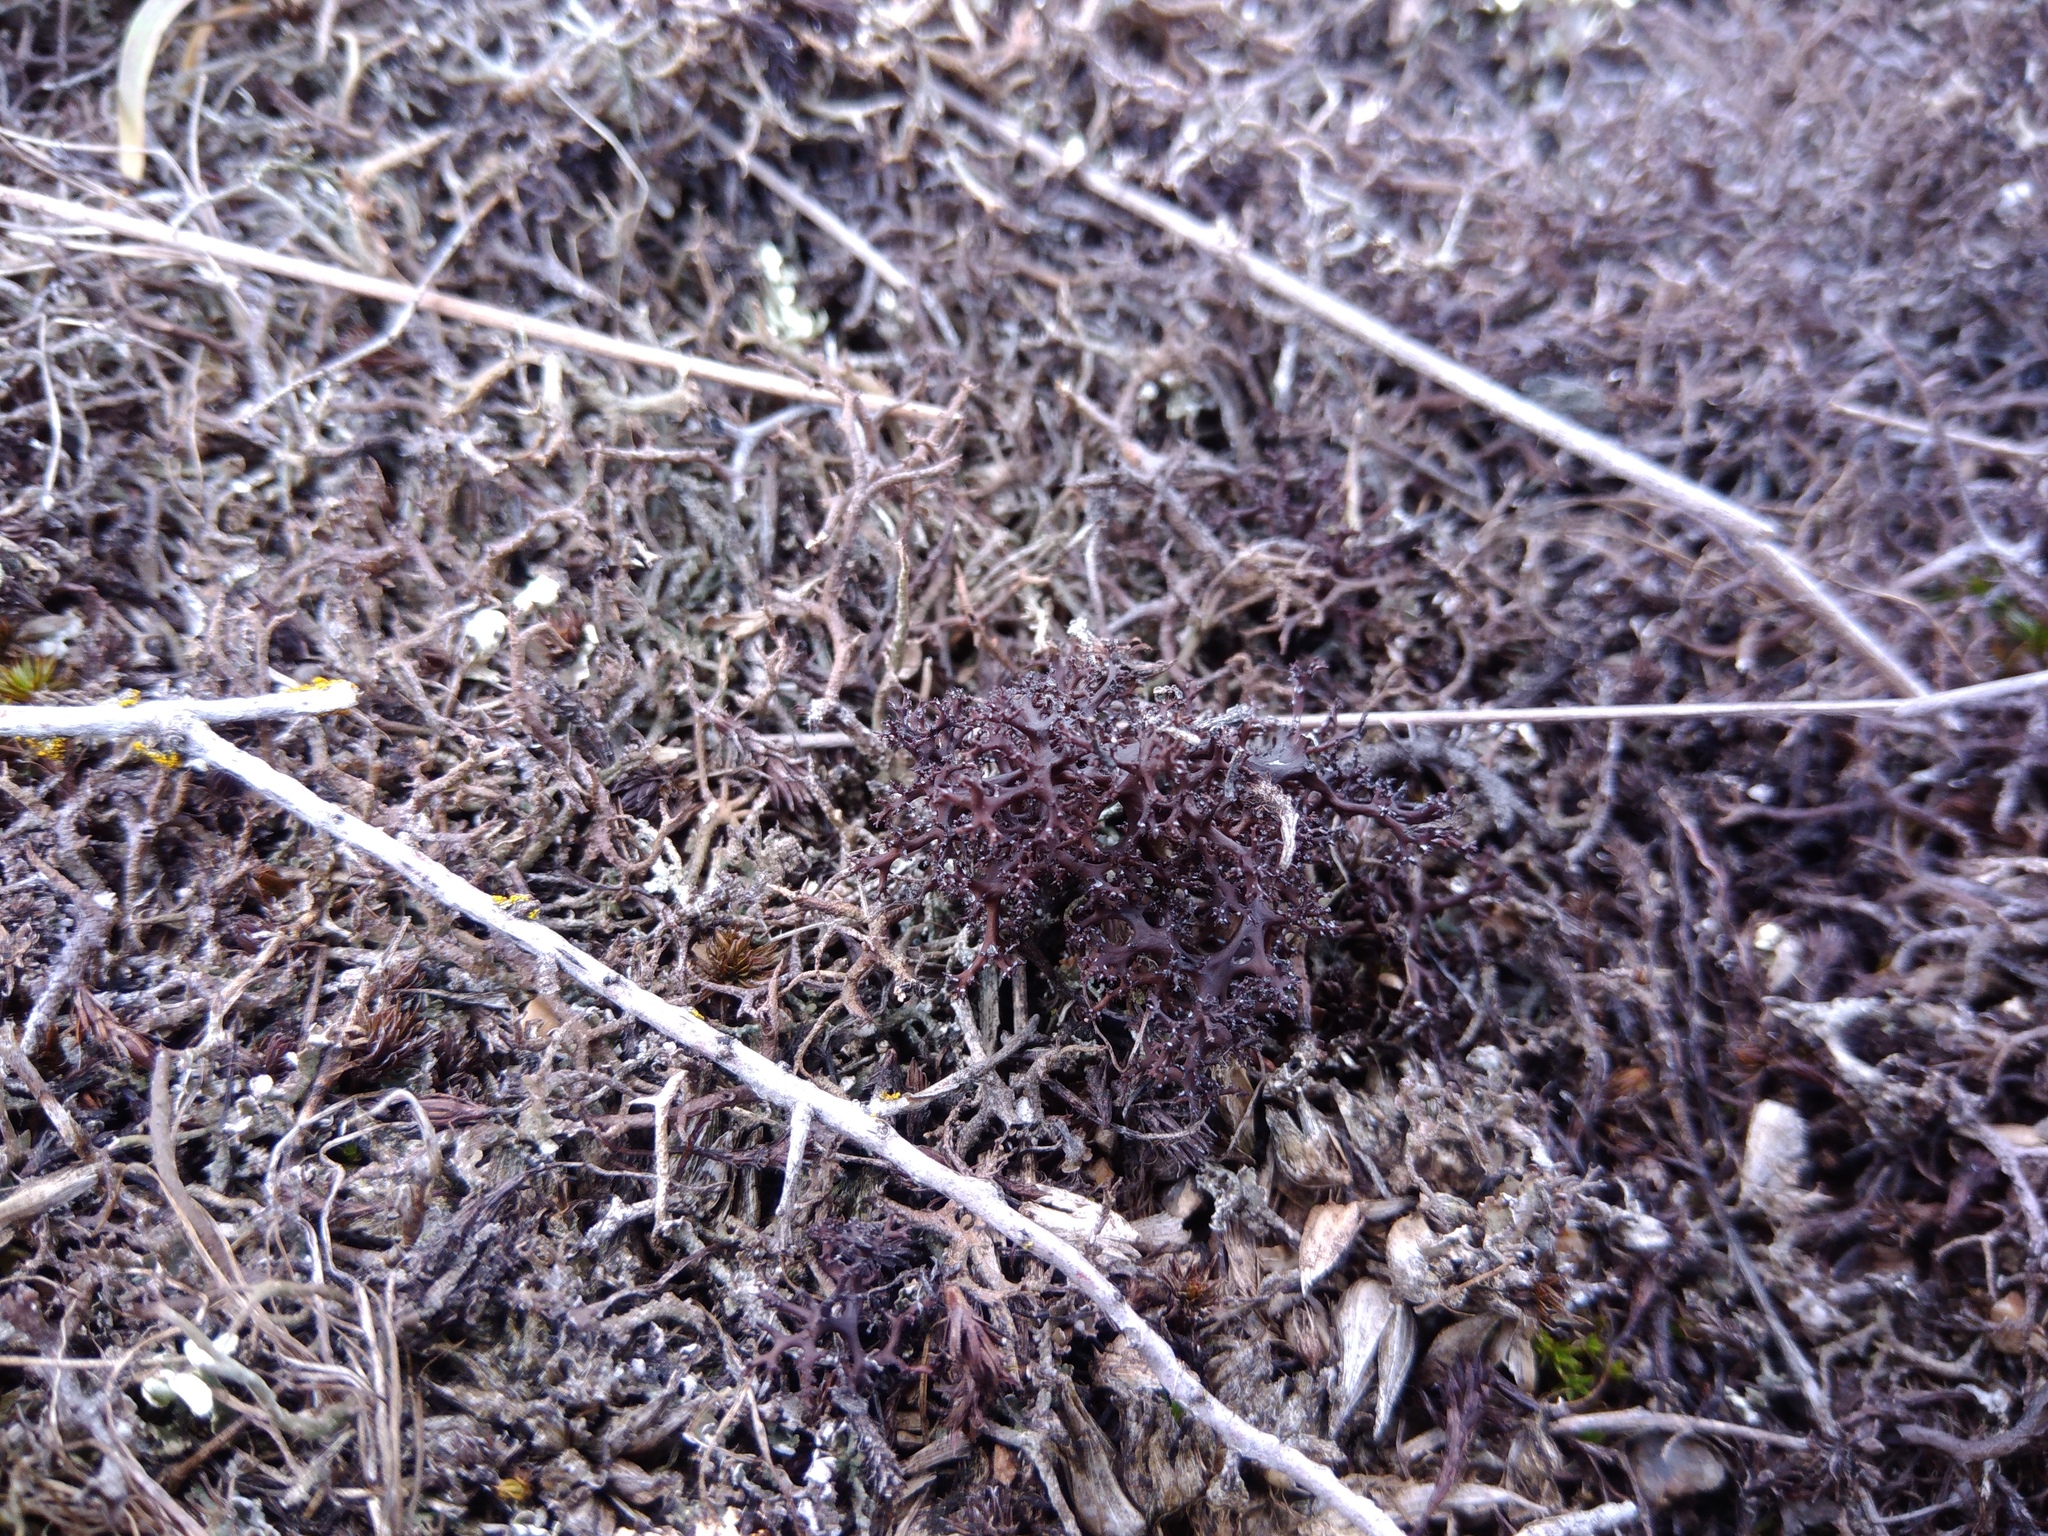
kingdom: Fungi
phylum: Ascomycota
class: Lecanoromycetes
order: Lecanorales
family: Parmeliaceae
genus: Cetraria
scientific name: Cetraria aculeata
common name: Spiny heath lichen
